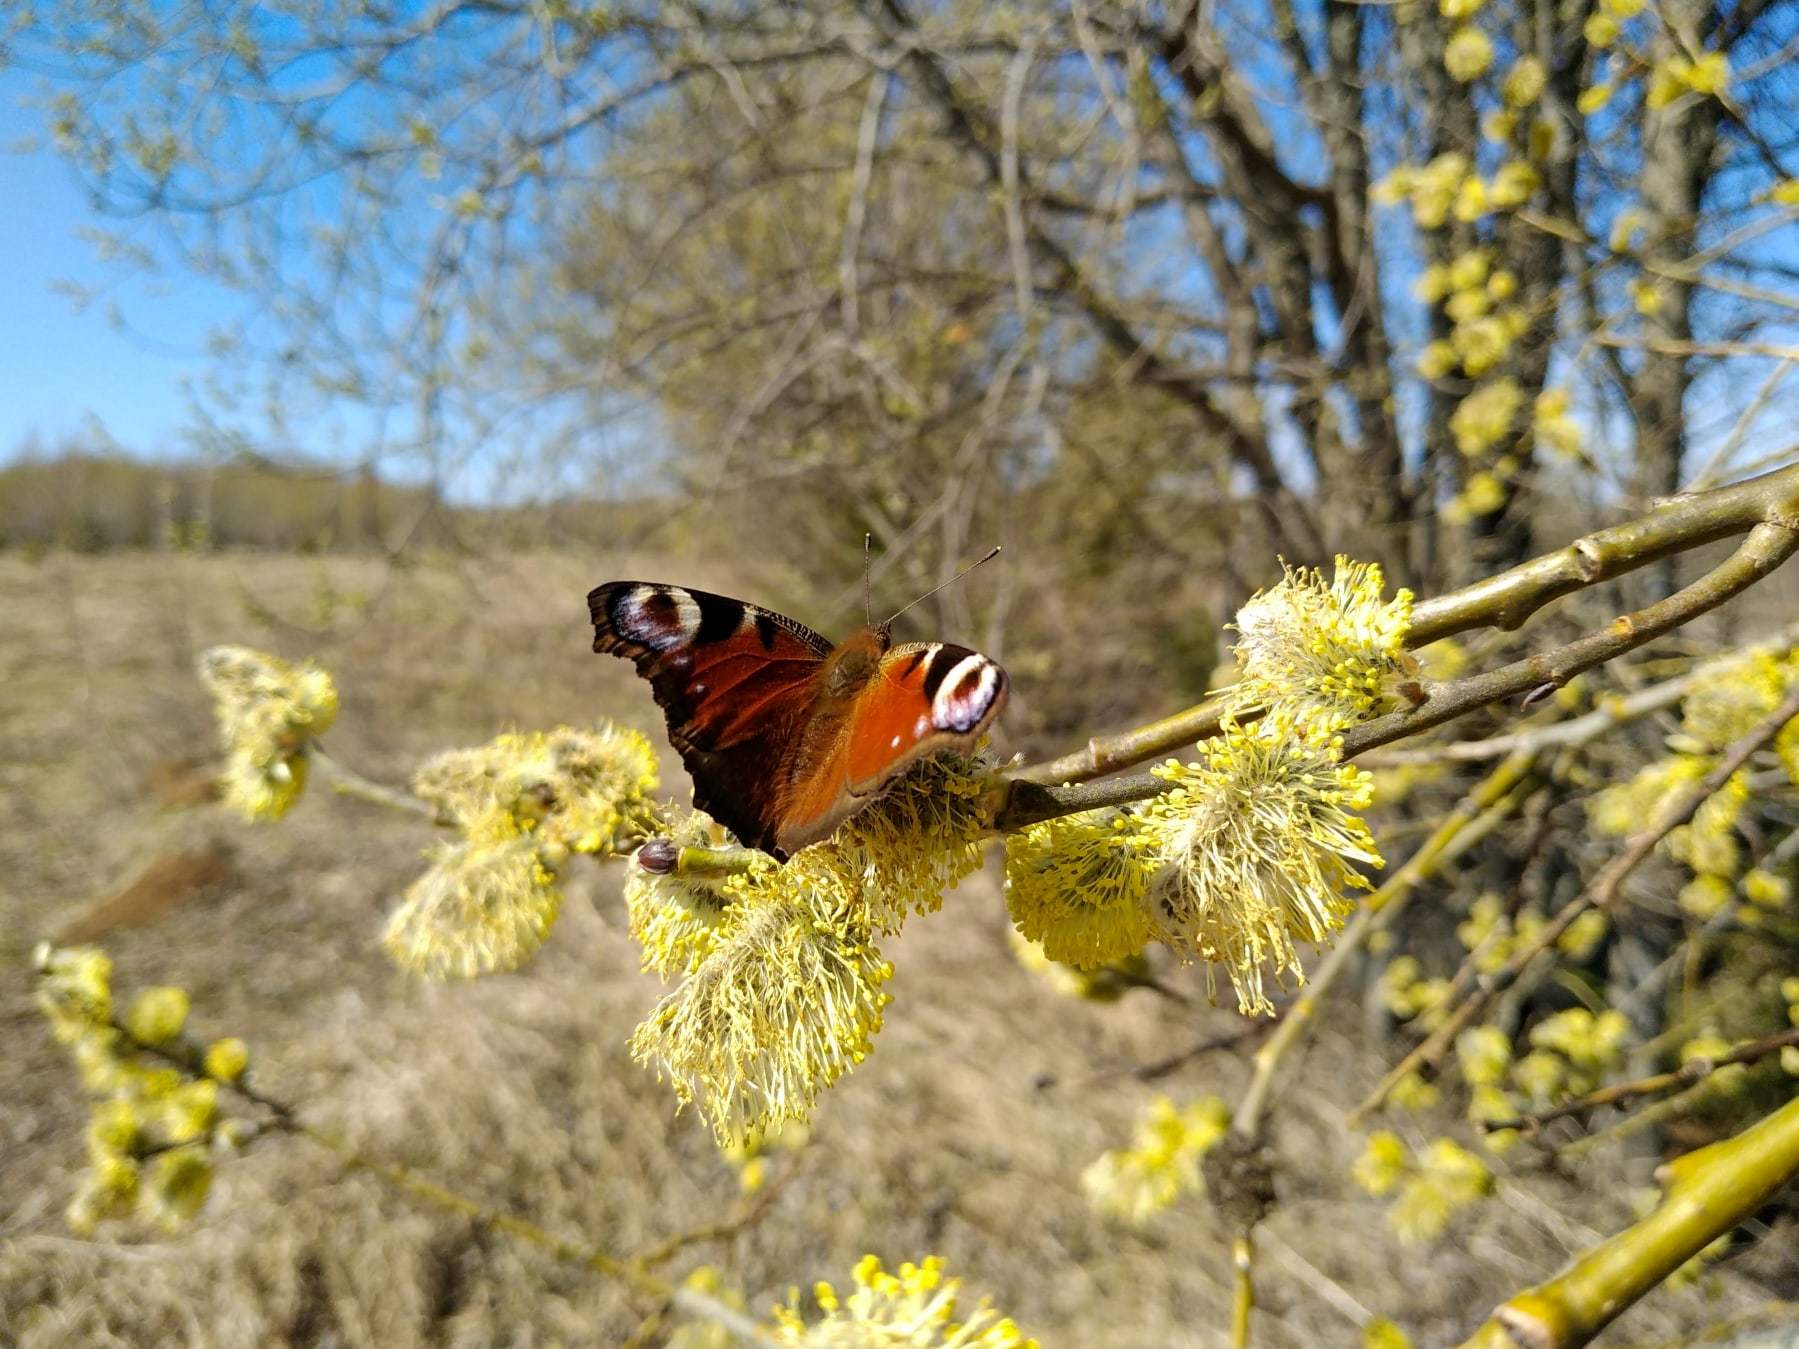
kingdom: Animalia
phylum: Arthropoda
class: Insecta
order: Lepidoptera
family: Nymphalidae
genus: Aglais
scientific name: Aglais io
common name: Peacock
